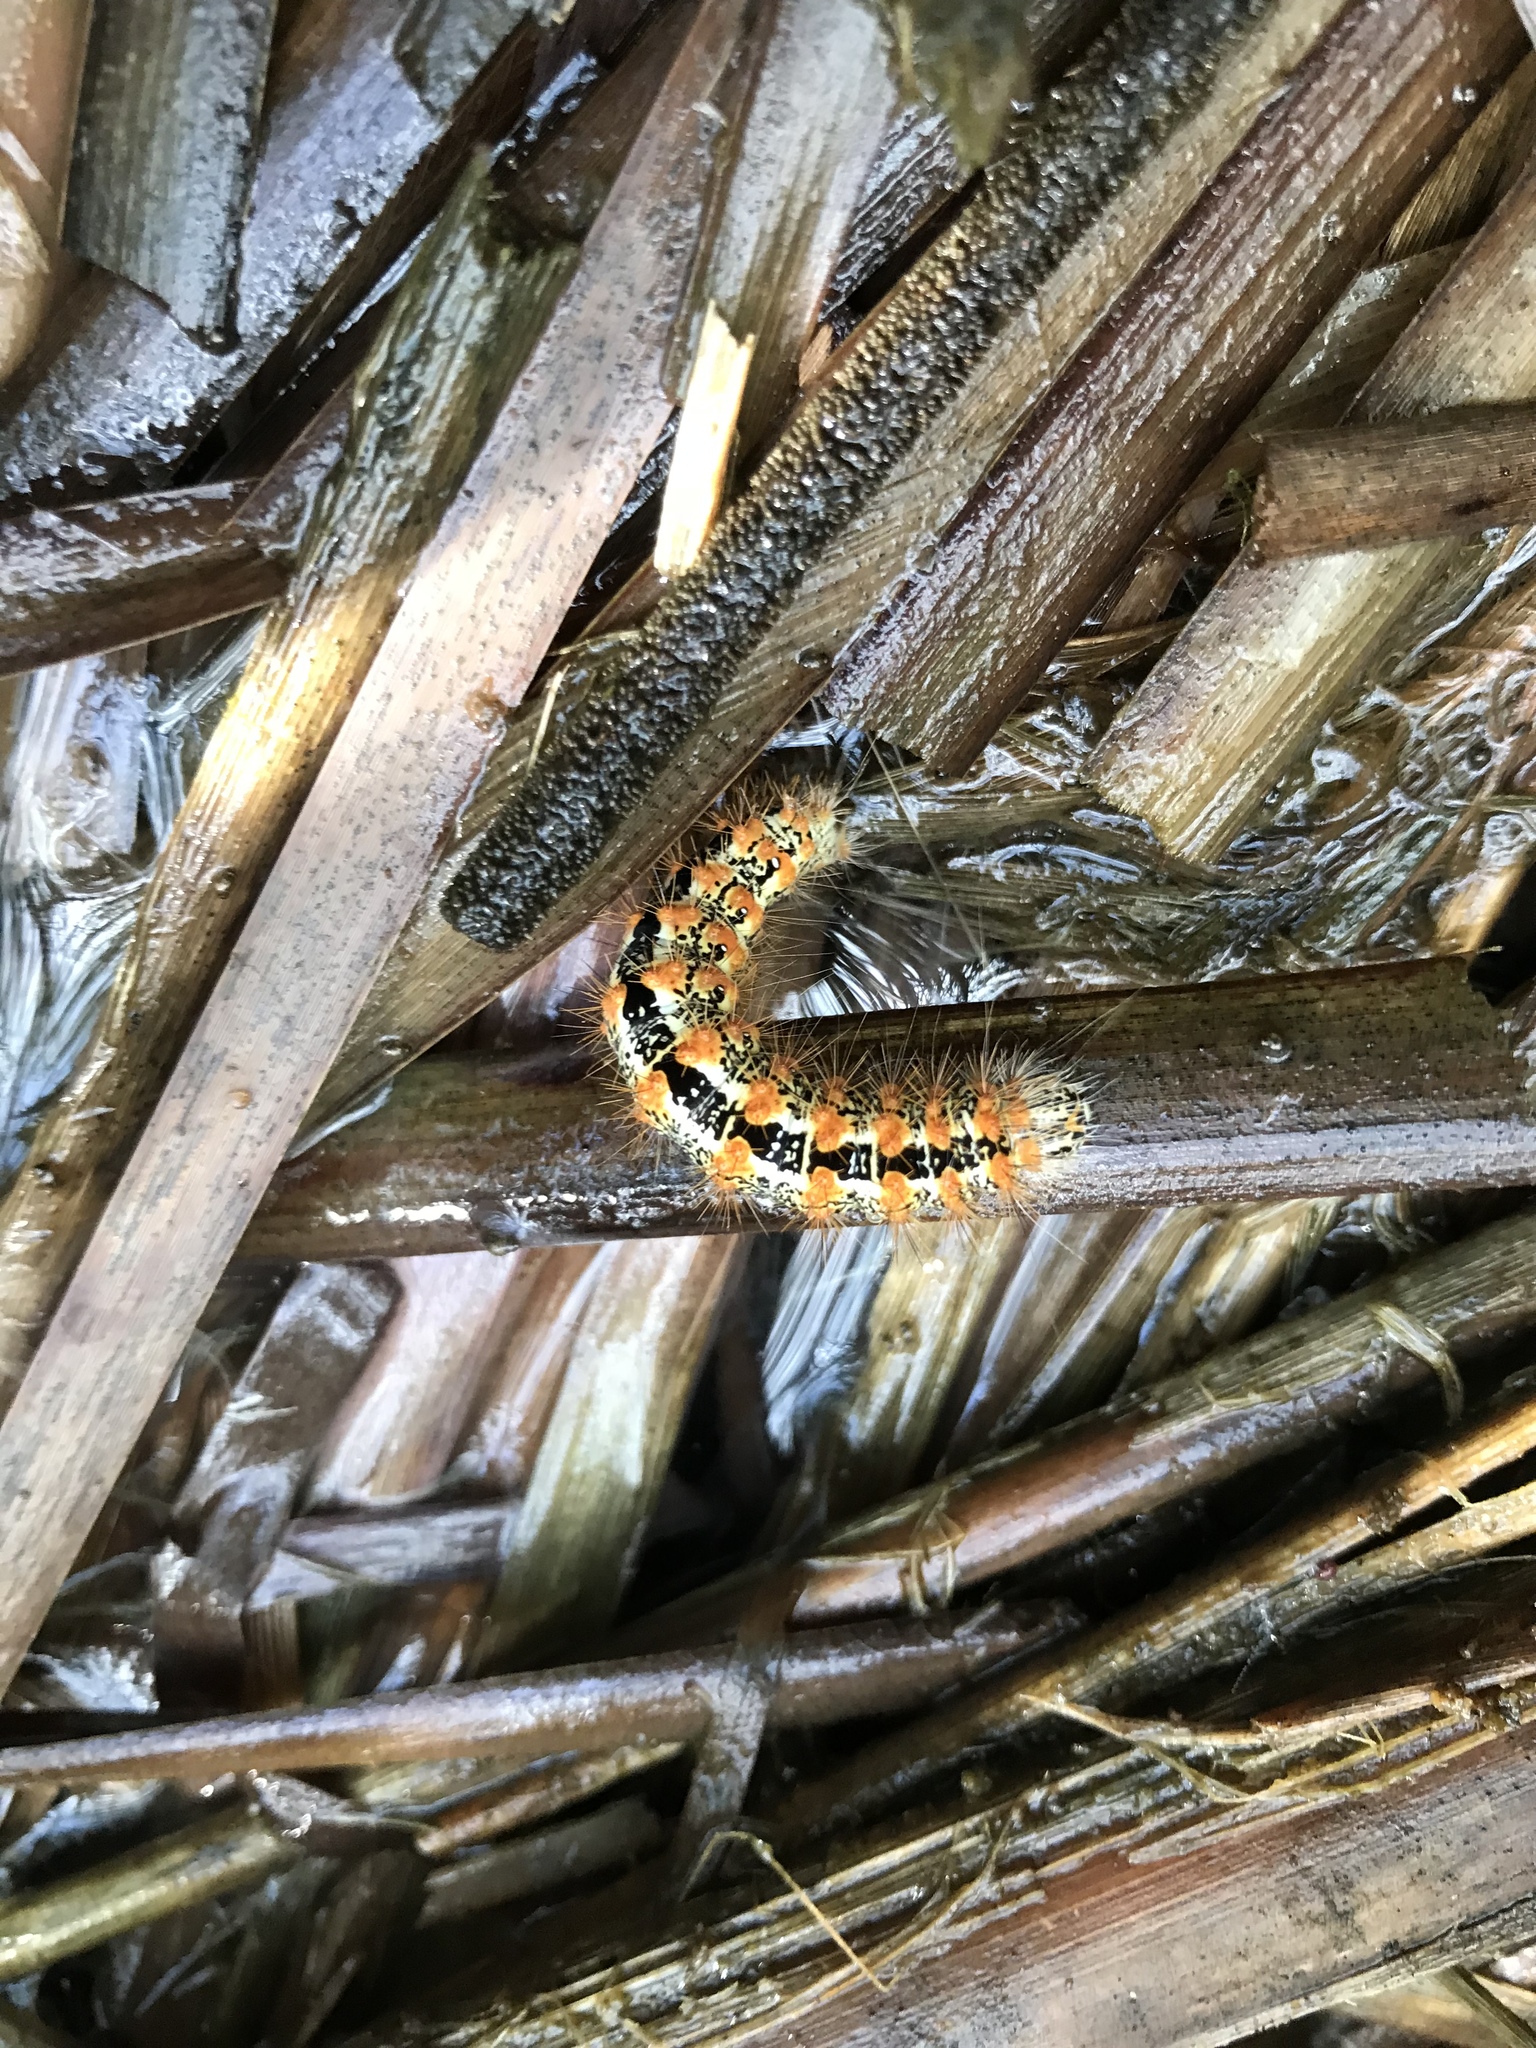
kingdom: Animalia
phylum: Arthropoda
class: Insecta
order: Lepidoptera
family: Noctuidae
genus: Acronicta
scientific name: Acronicta insularis
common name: Henry's marsh moth
